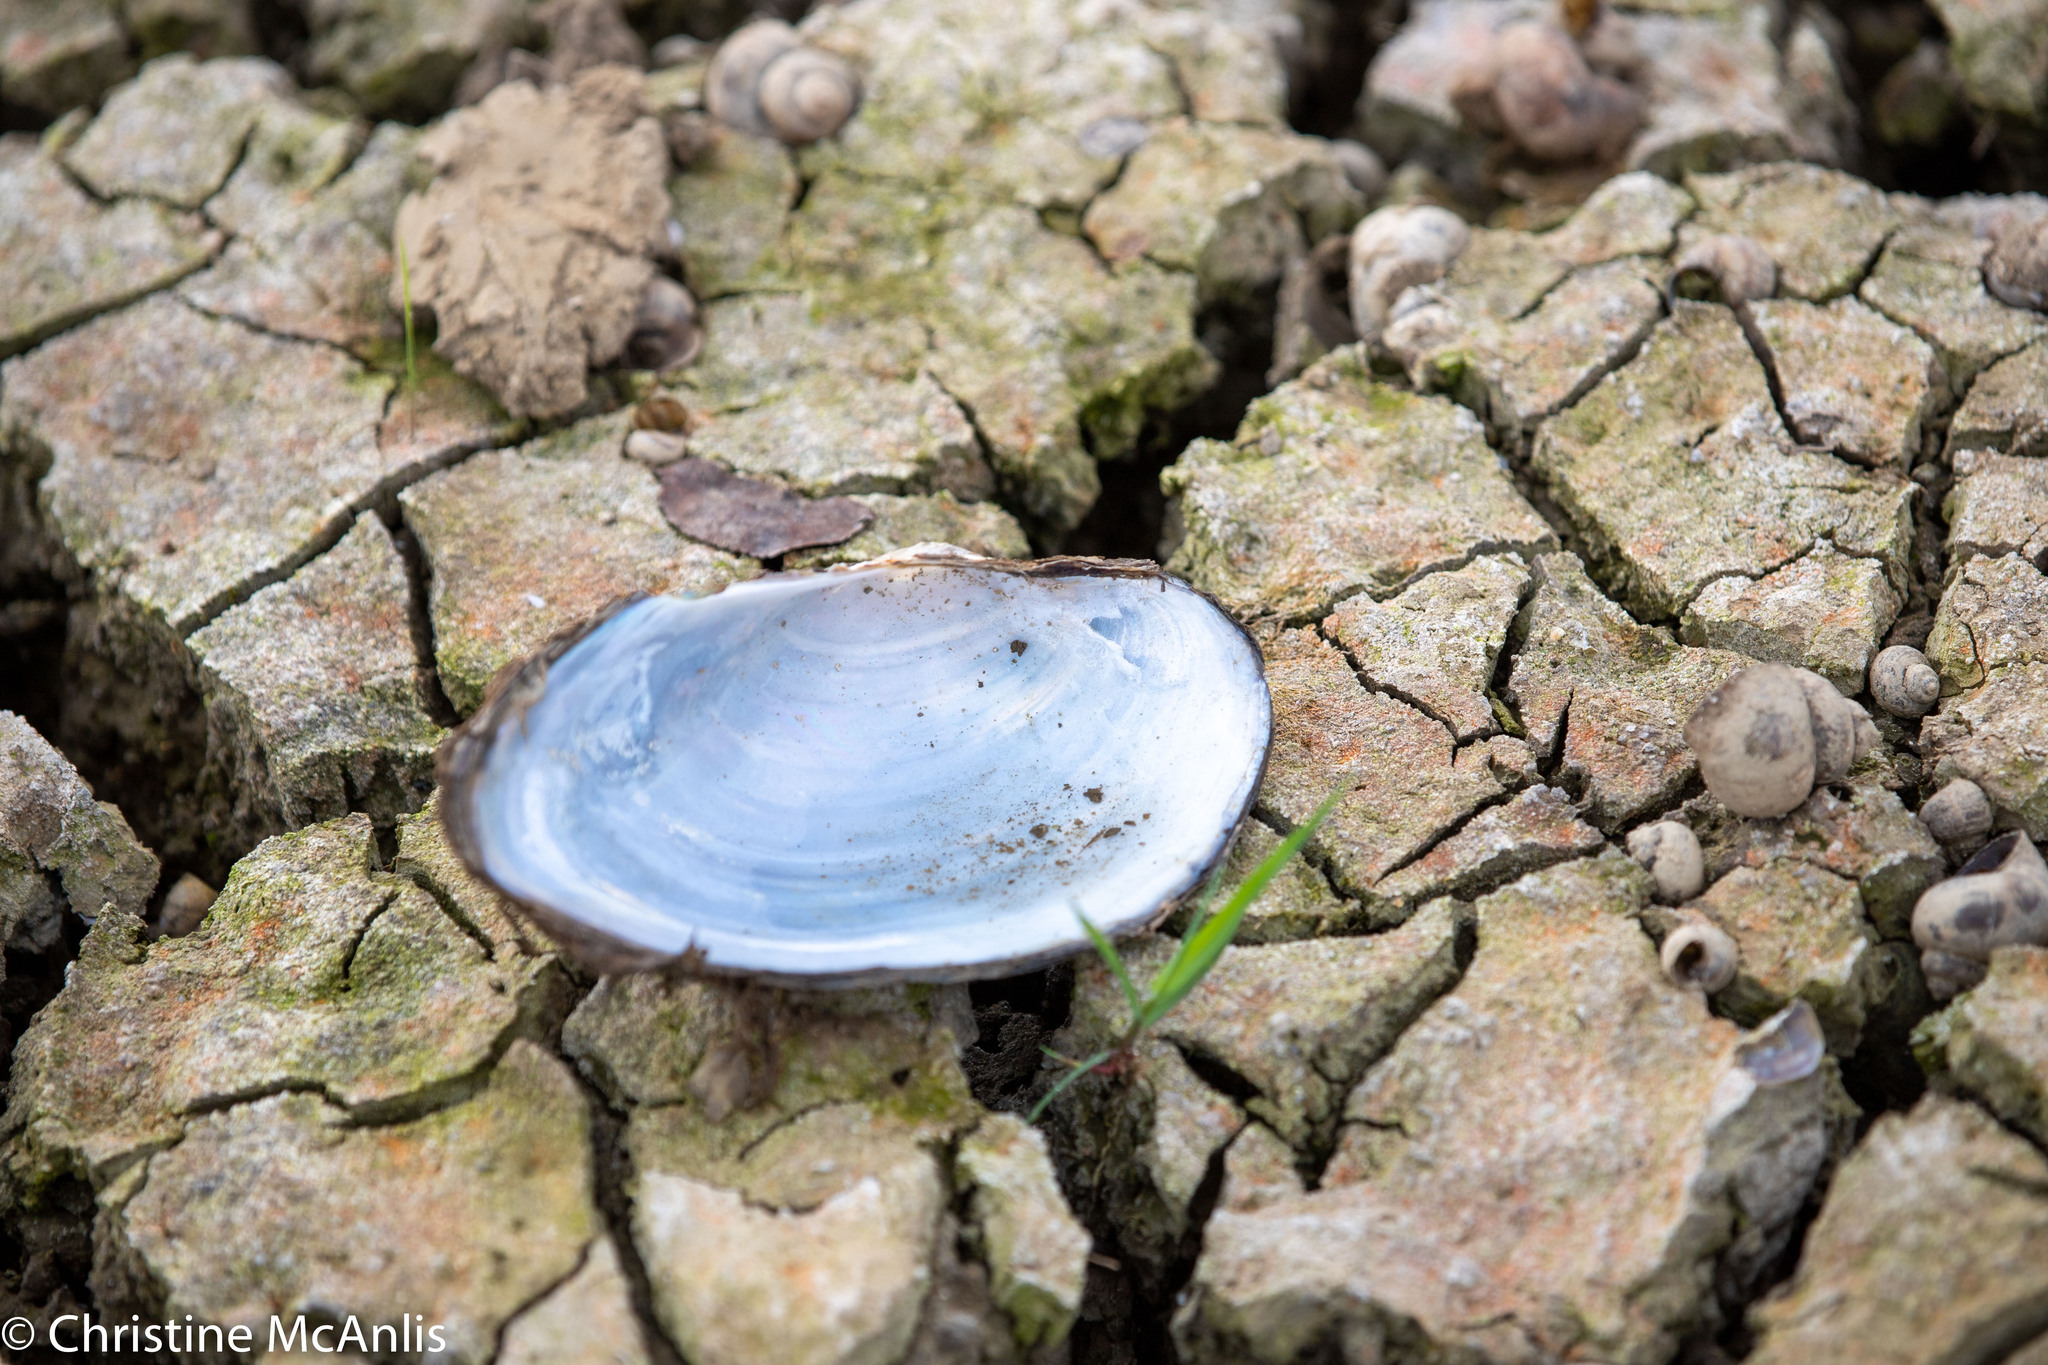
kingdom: Animalia
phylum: Mollusca
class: Bivalvia
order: Unionida
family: Unionidae
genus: Pyganodon
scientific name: Pyganodon grandis
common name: Giant floater
